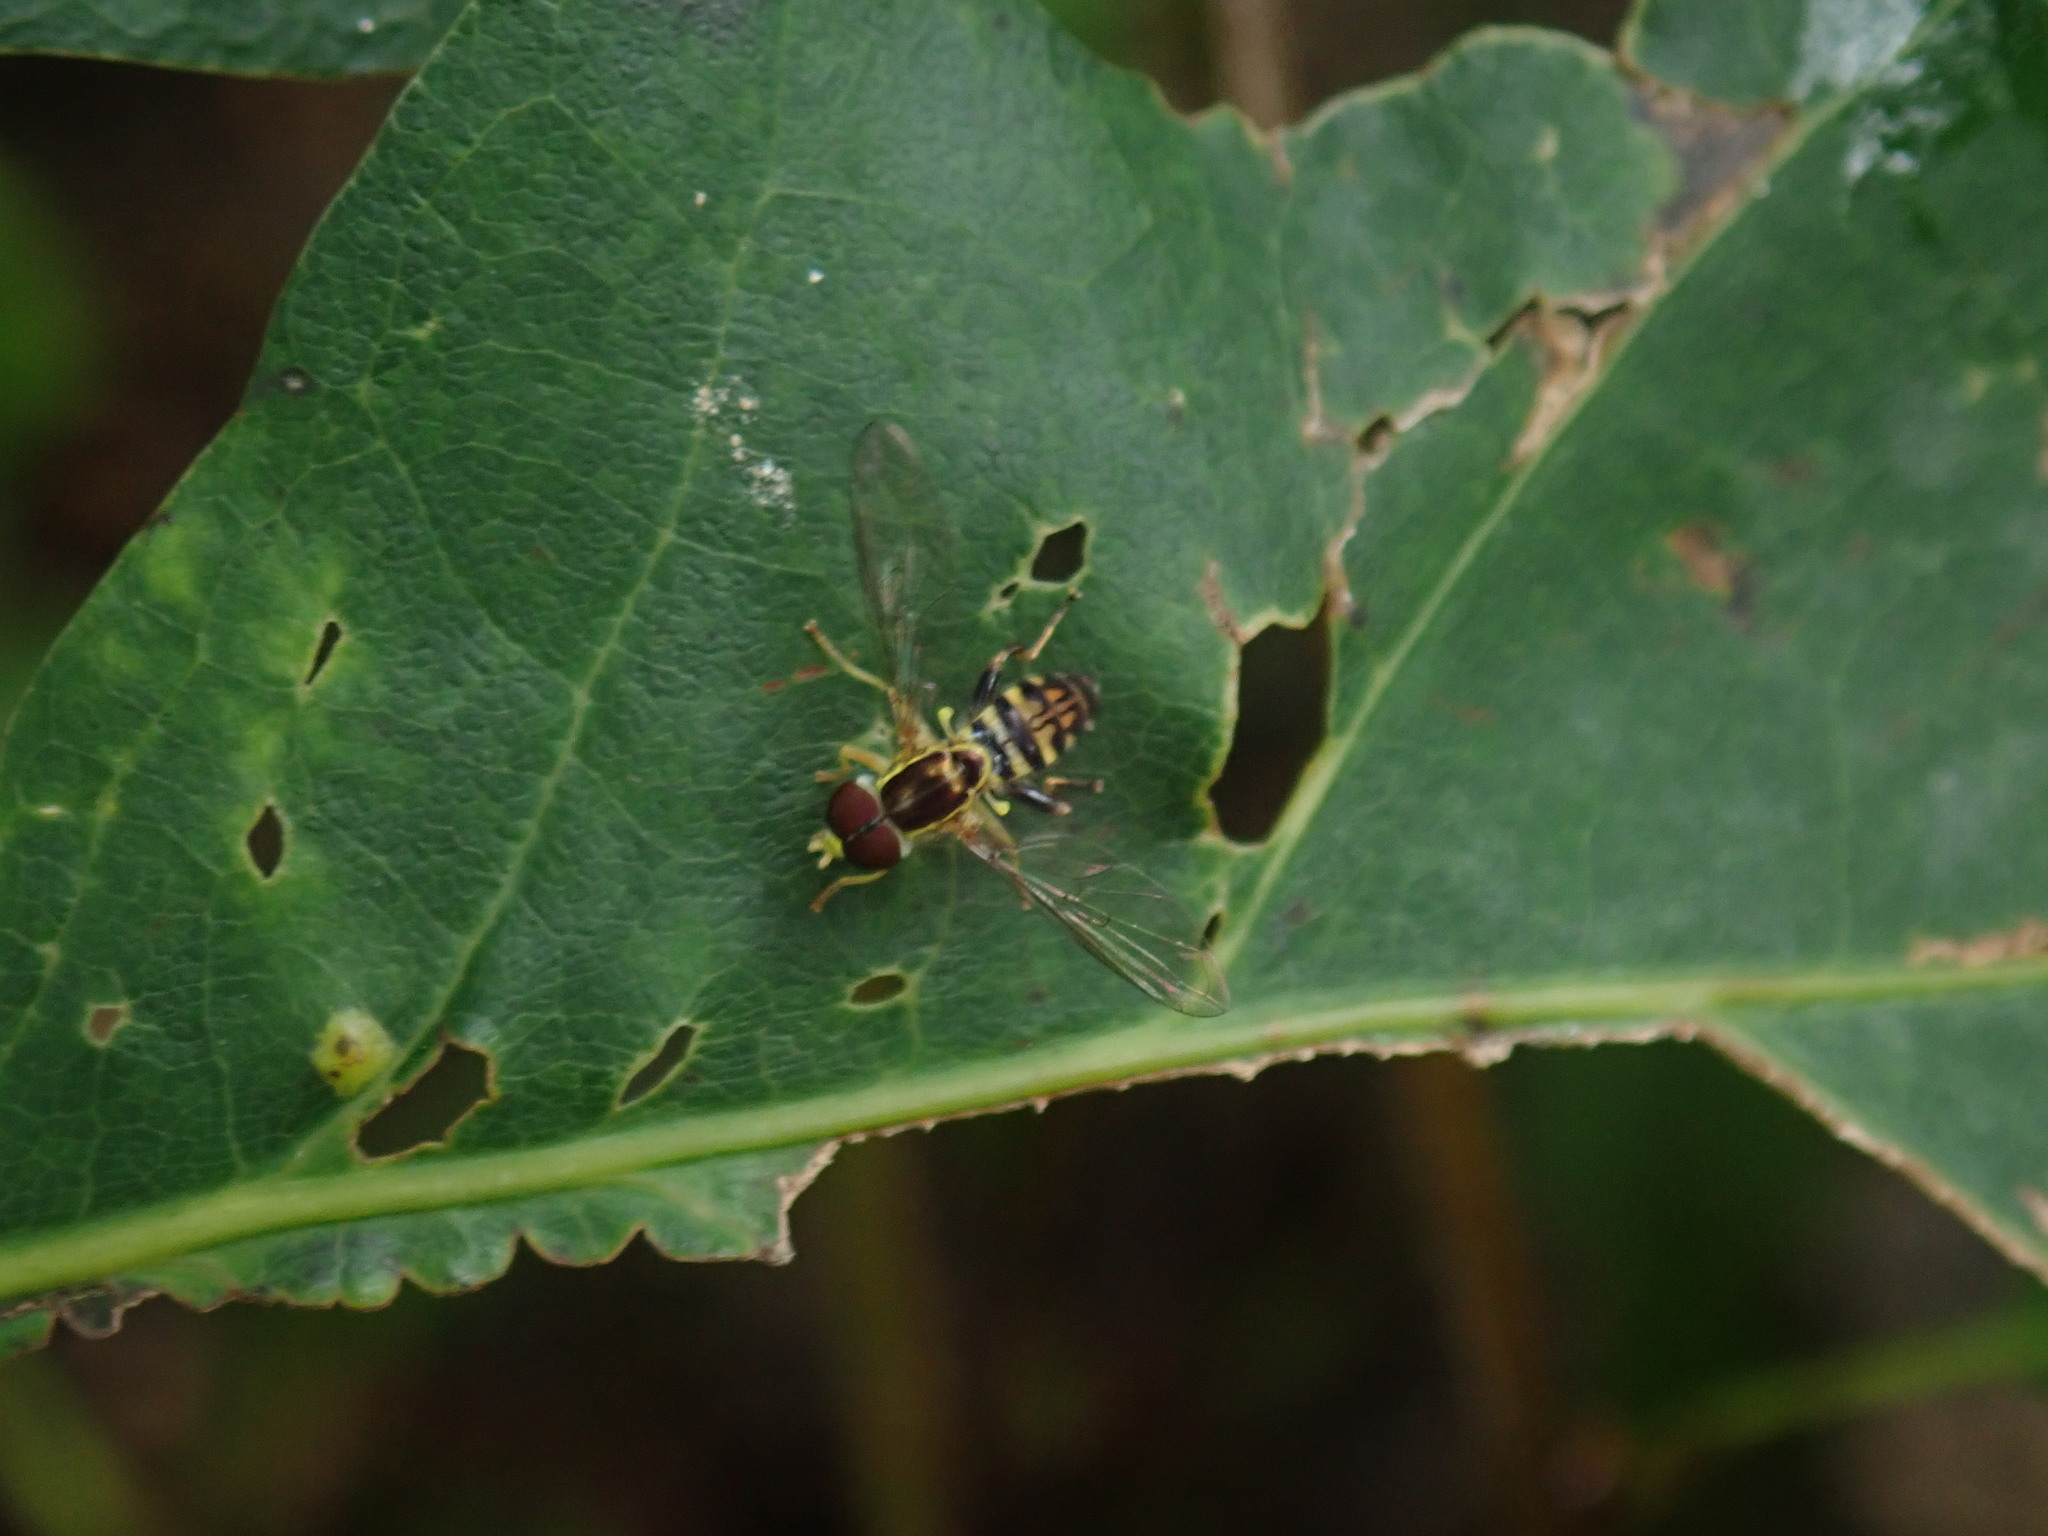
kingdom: Animalia
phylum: Arthropoda
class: Insecta
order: Diptera
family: Syrphidae
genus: Toxomerus
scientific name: Toxomerus geminatus
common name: Eastern calligrapher
